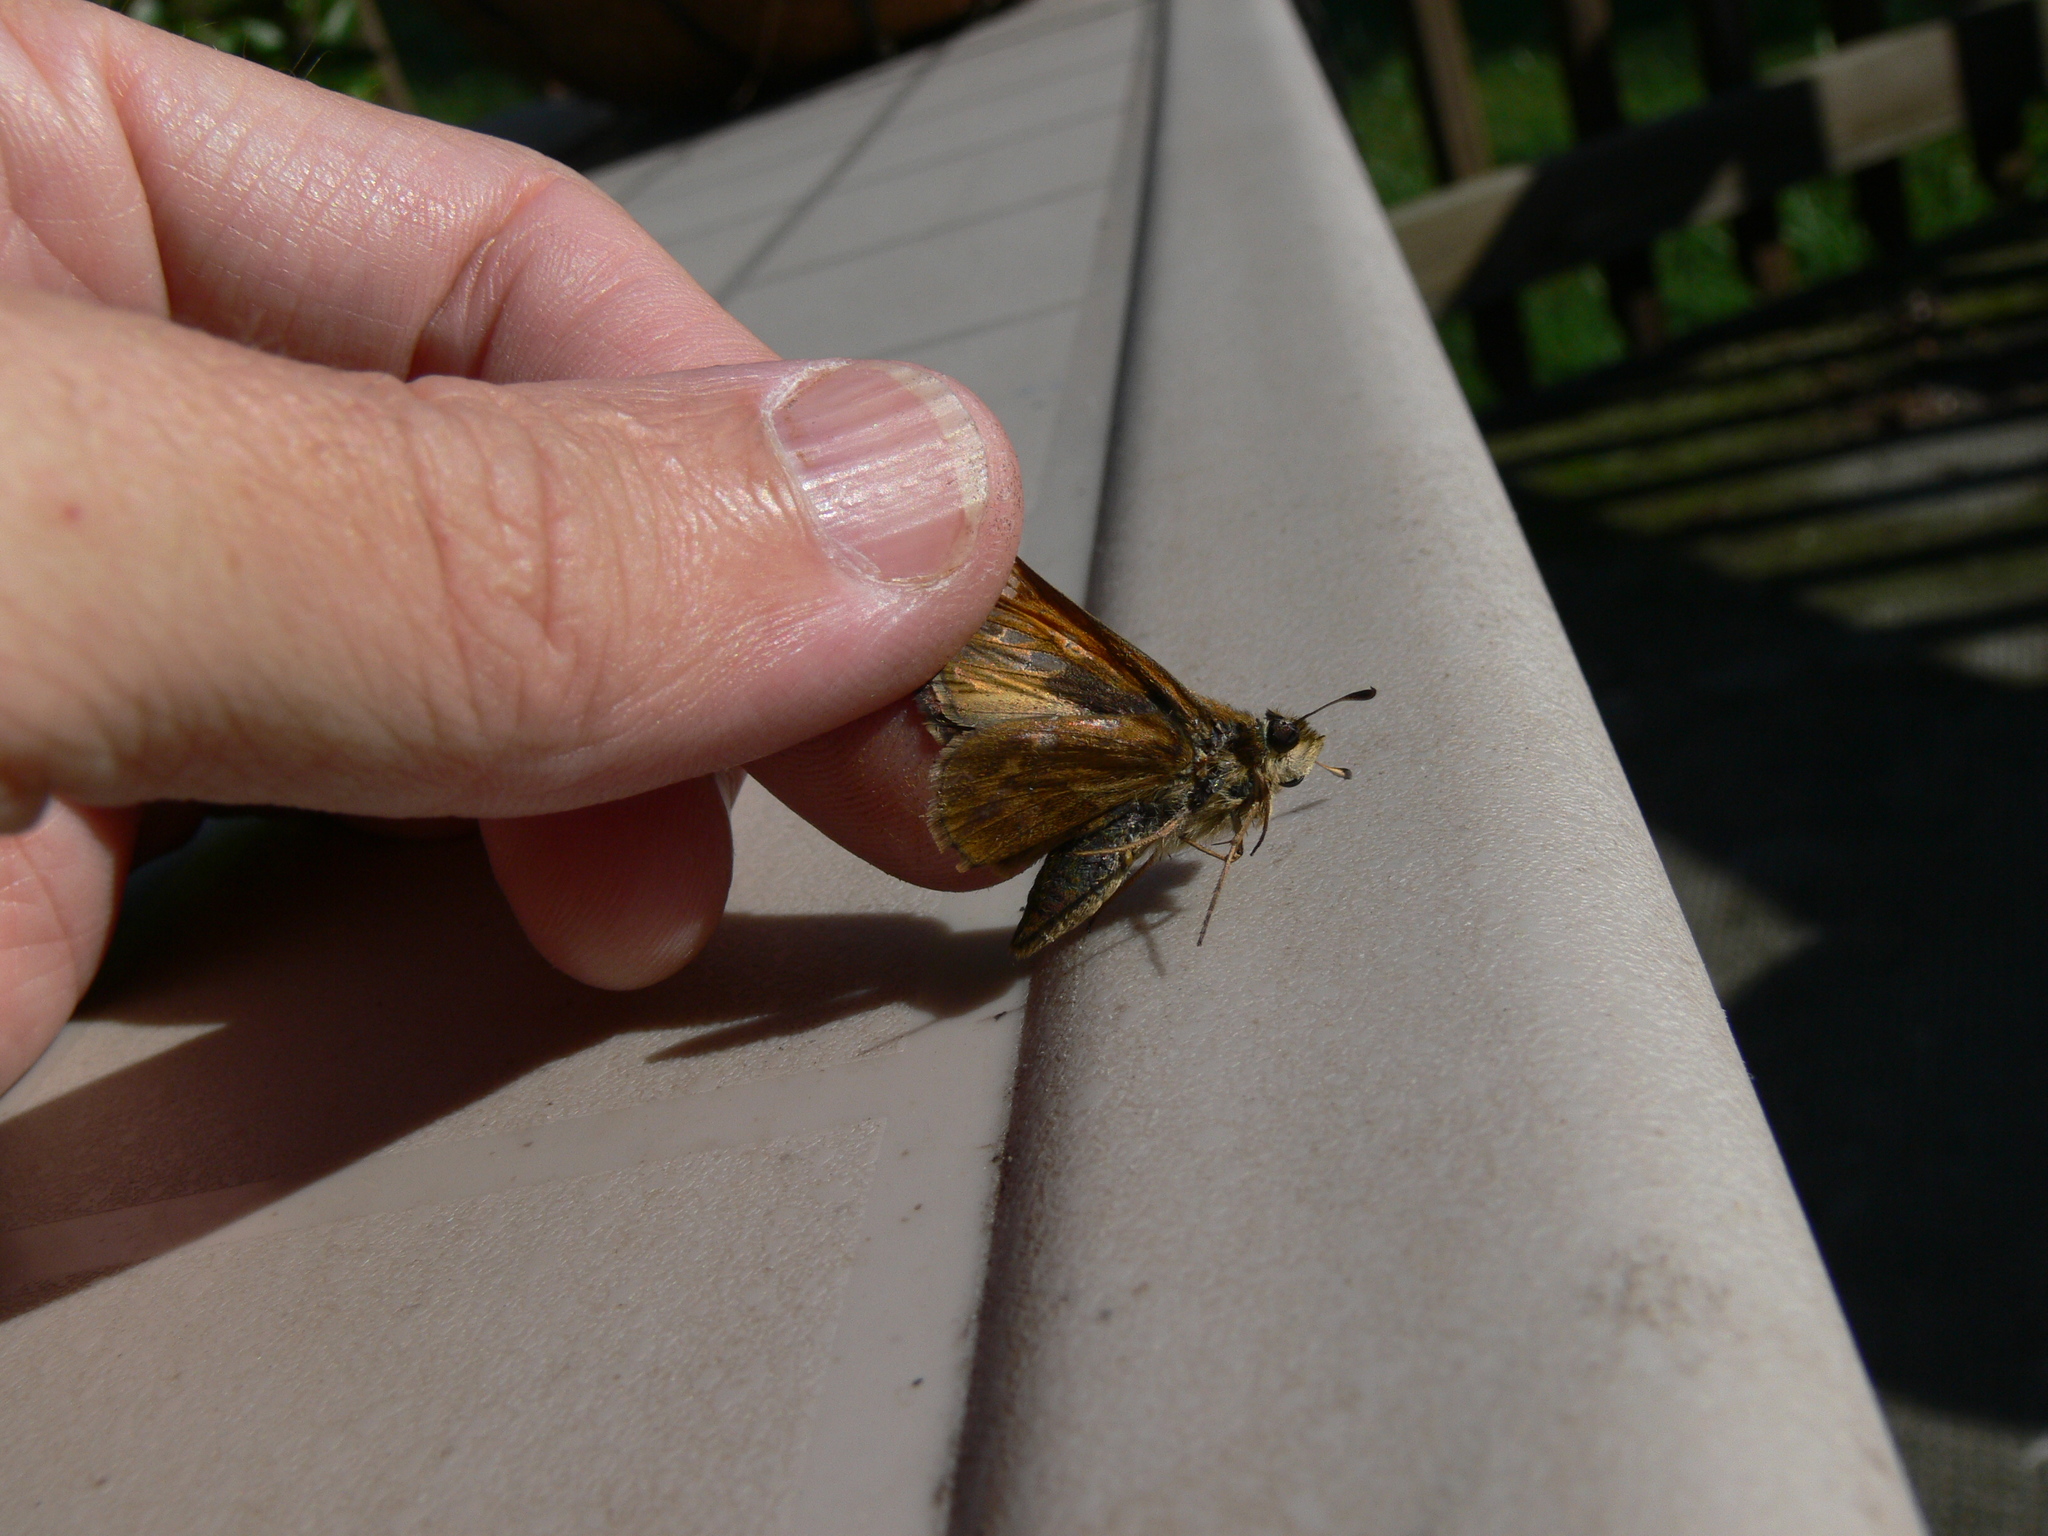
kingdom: Animalia
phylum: Arthropoda
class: Insecta
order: Lepidoptera
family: Hesperiidae
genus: Atalopedes
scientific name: Atalopedes
